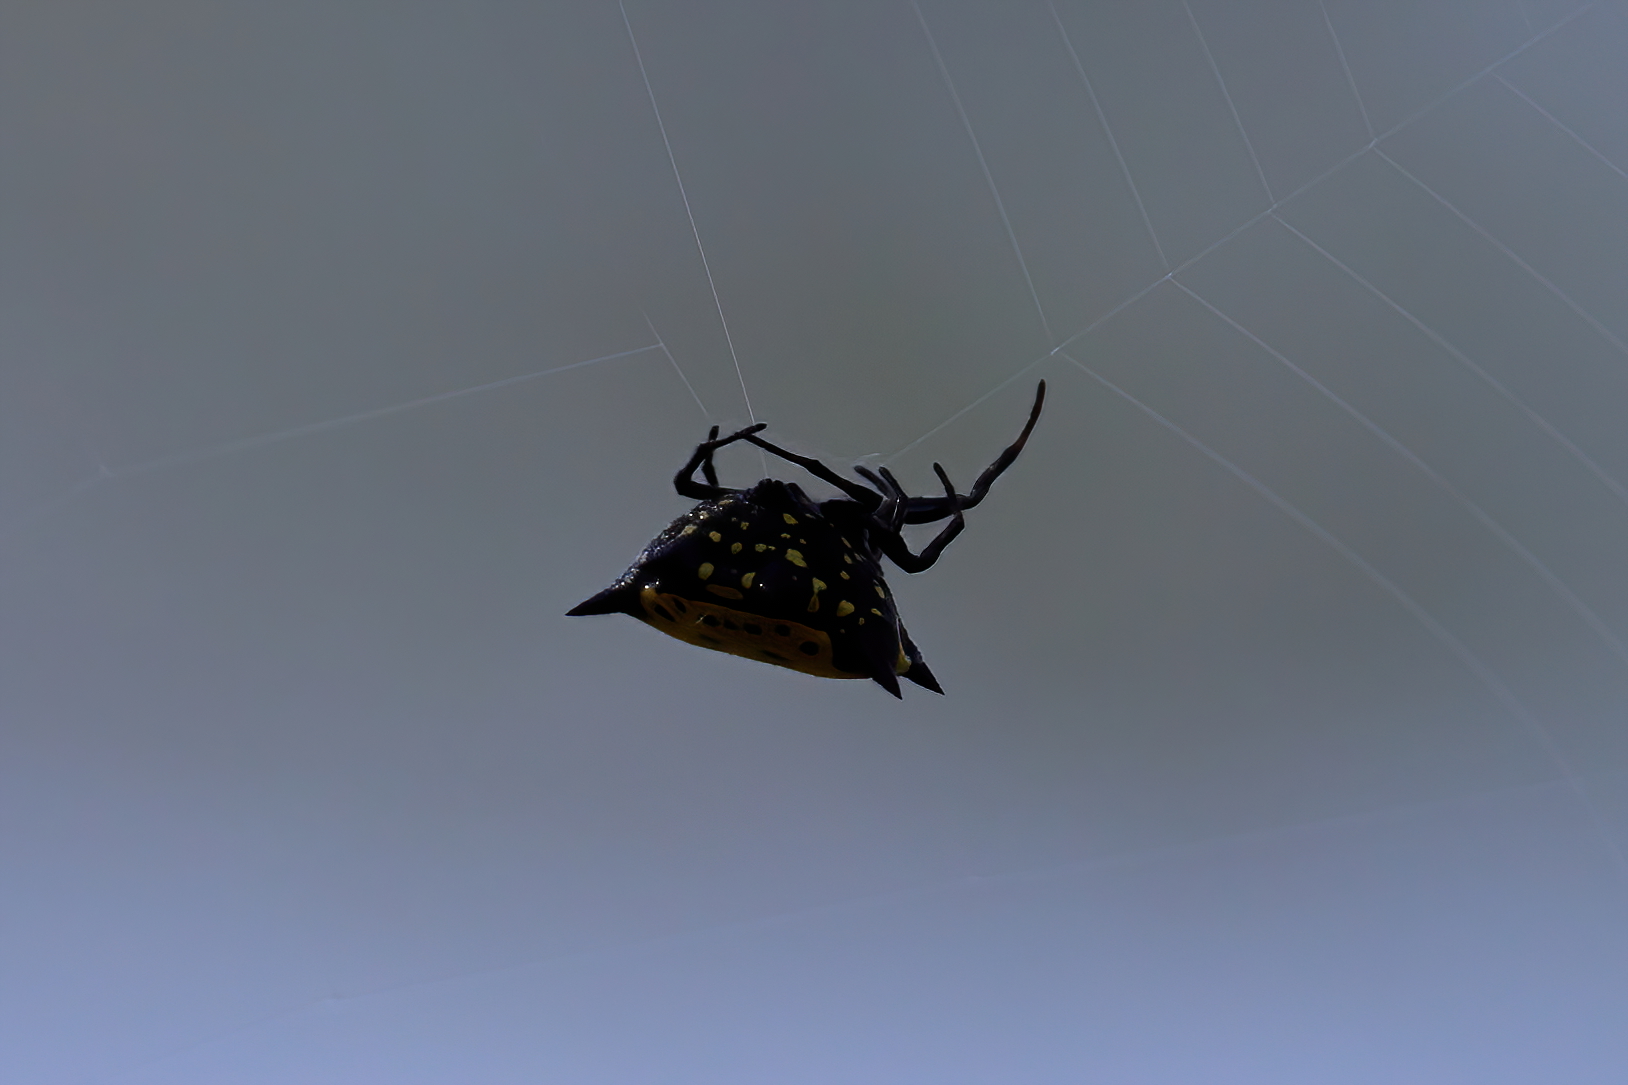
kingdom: Animalia
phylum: Arthropoda
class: Arachnida
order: Araneae
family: Araneidae
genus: Gasteracantha
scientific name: Gasteracantha cancriformis
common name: Orb weavers
